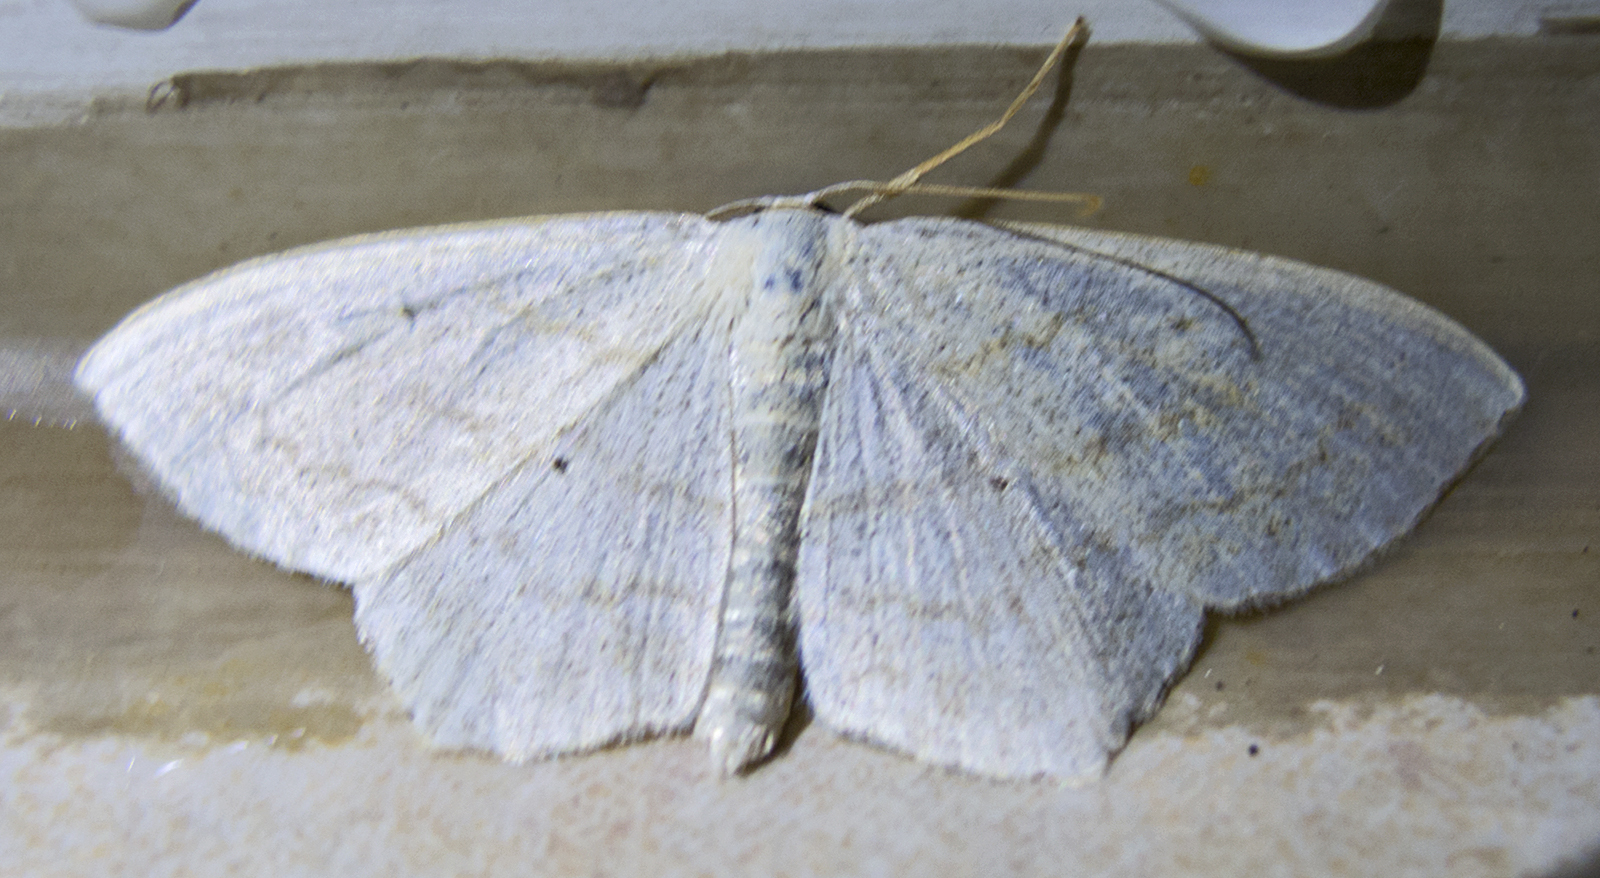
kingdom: Animalia
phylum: Arthropoda
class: Insecta
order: Lepidoptera
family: Geometridae
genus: Scopula
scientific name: Scopula subpunctaria
